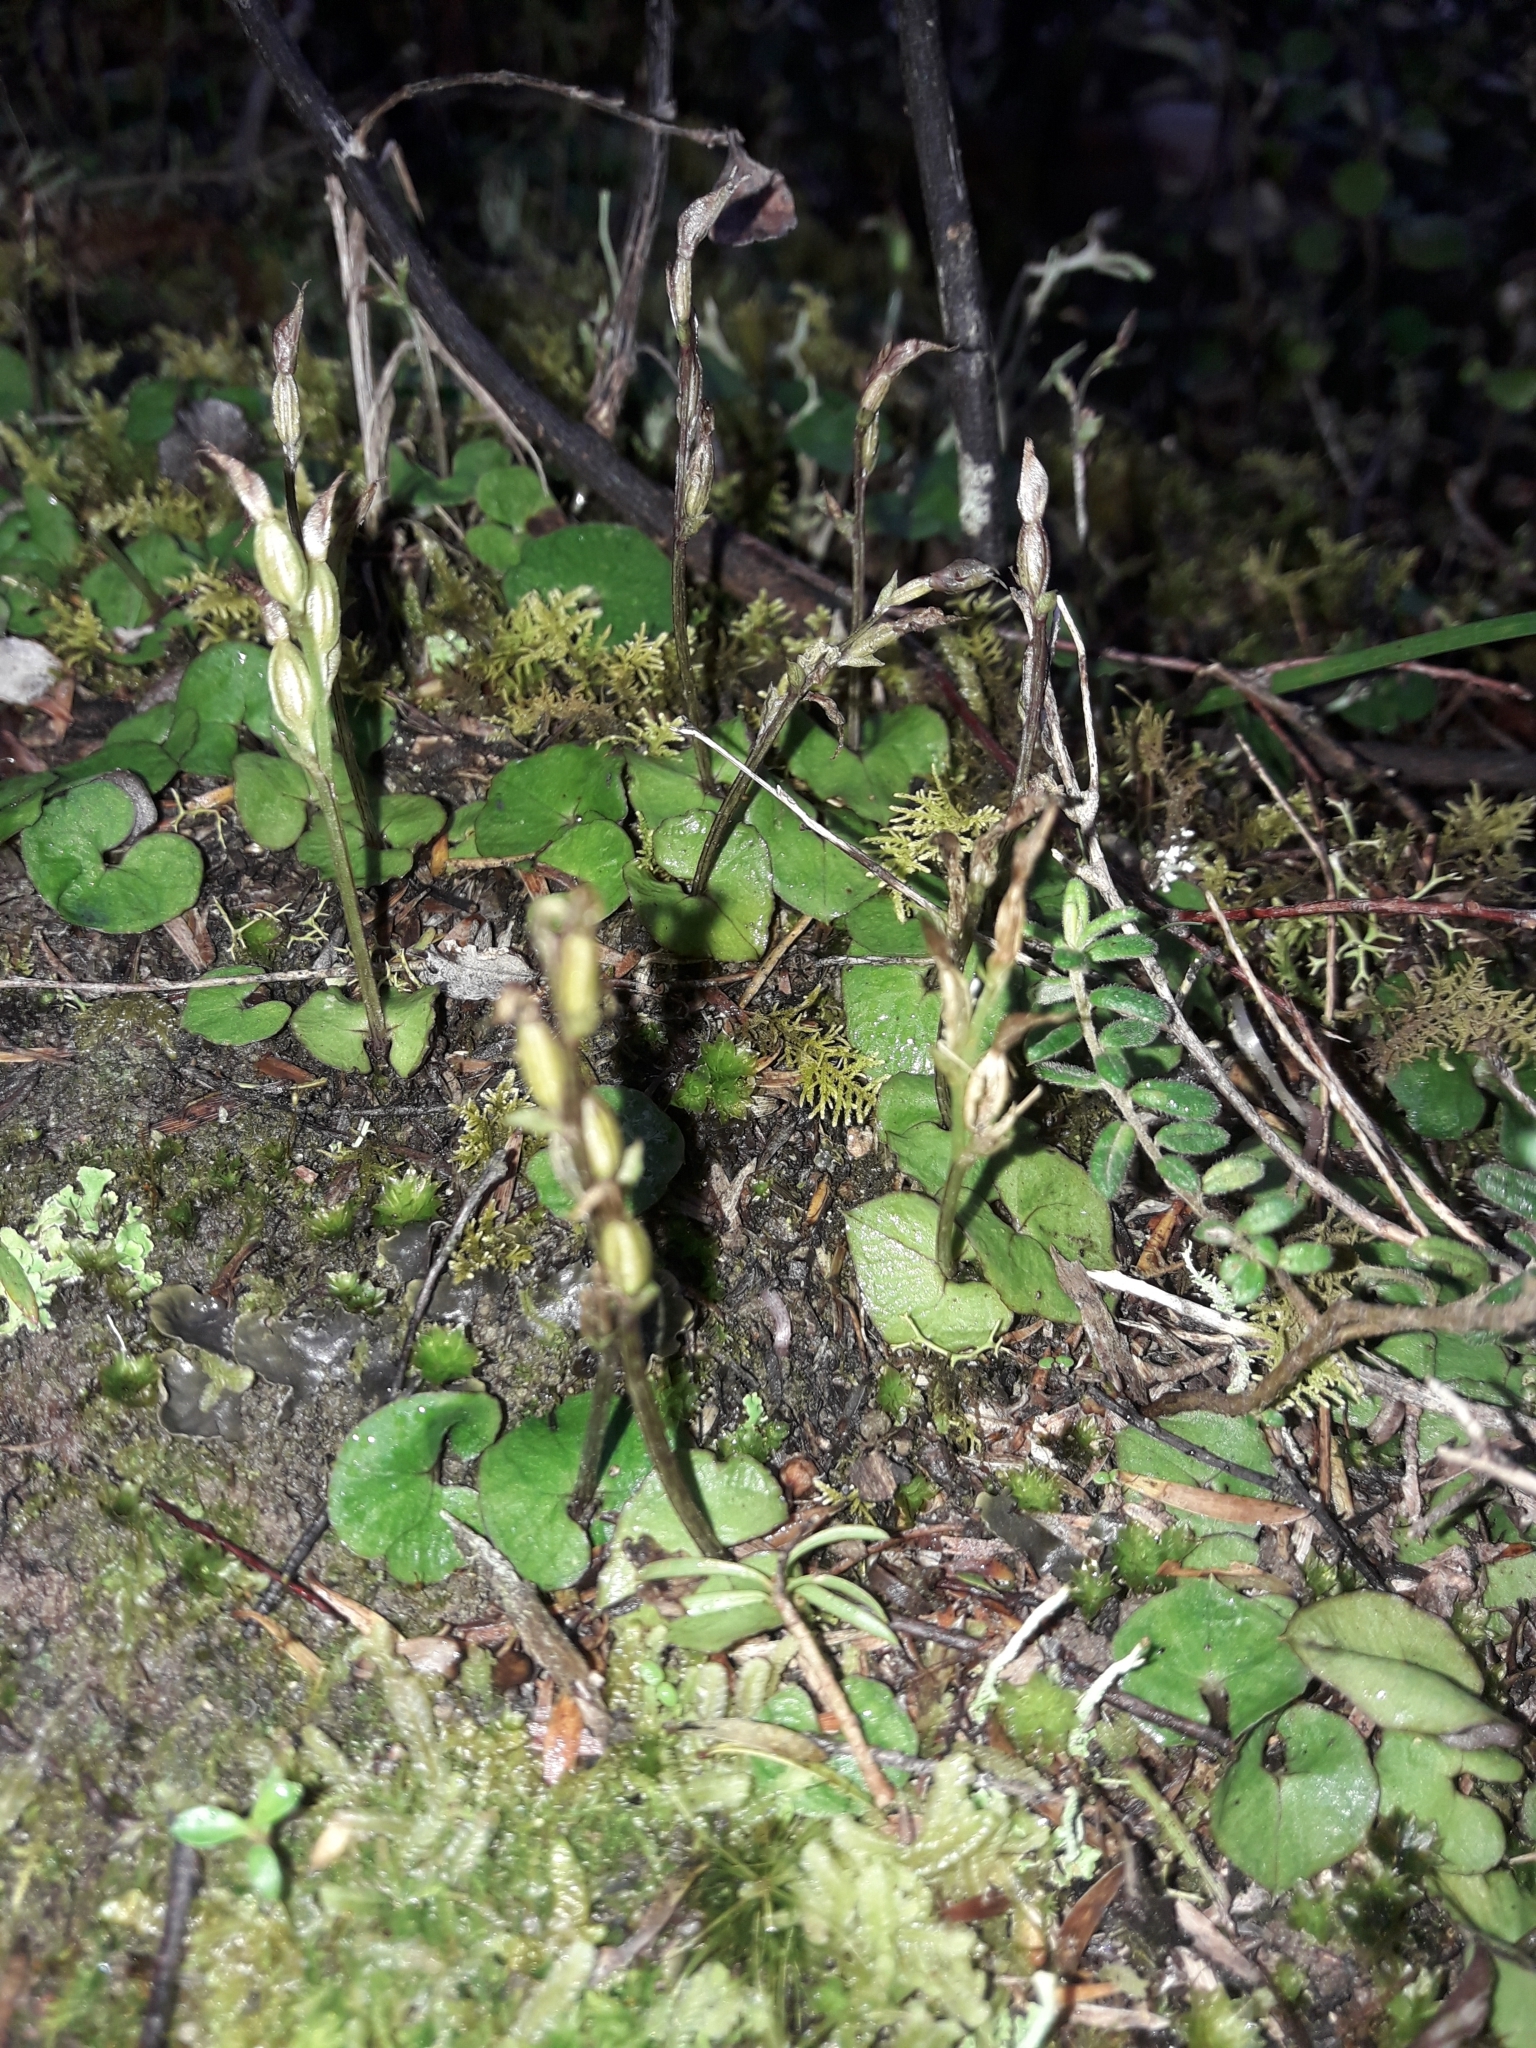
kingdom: Plantae
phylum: Tracheophyta
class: Liliopsida
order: Asparagales
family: Orchidaceae
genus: Acianthus
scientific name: Acianthus sinclairii
